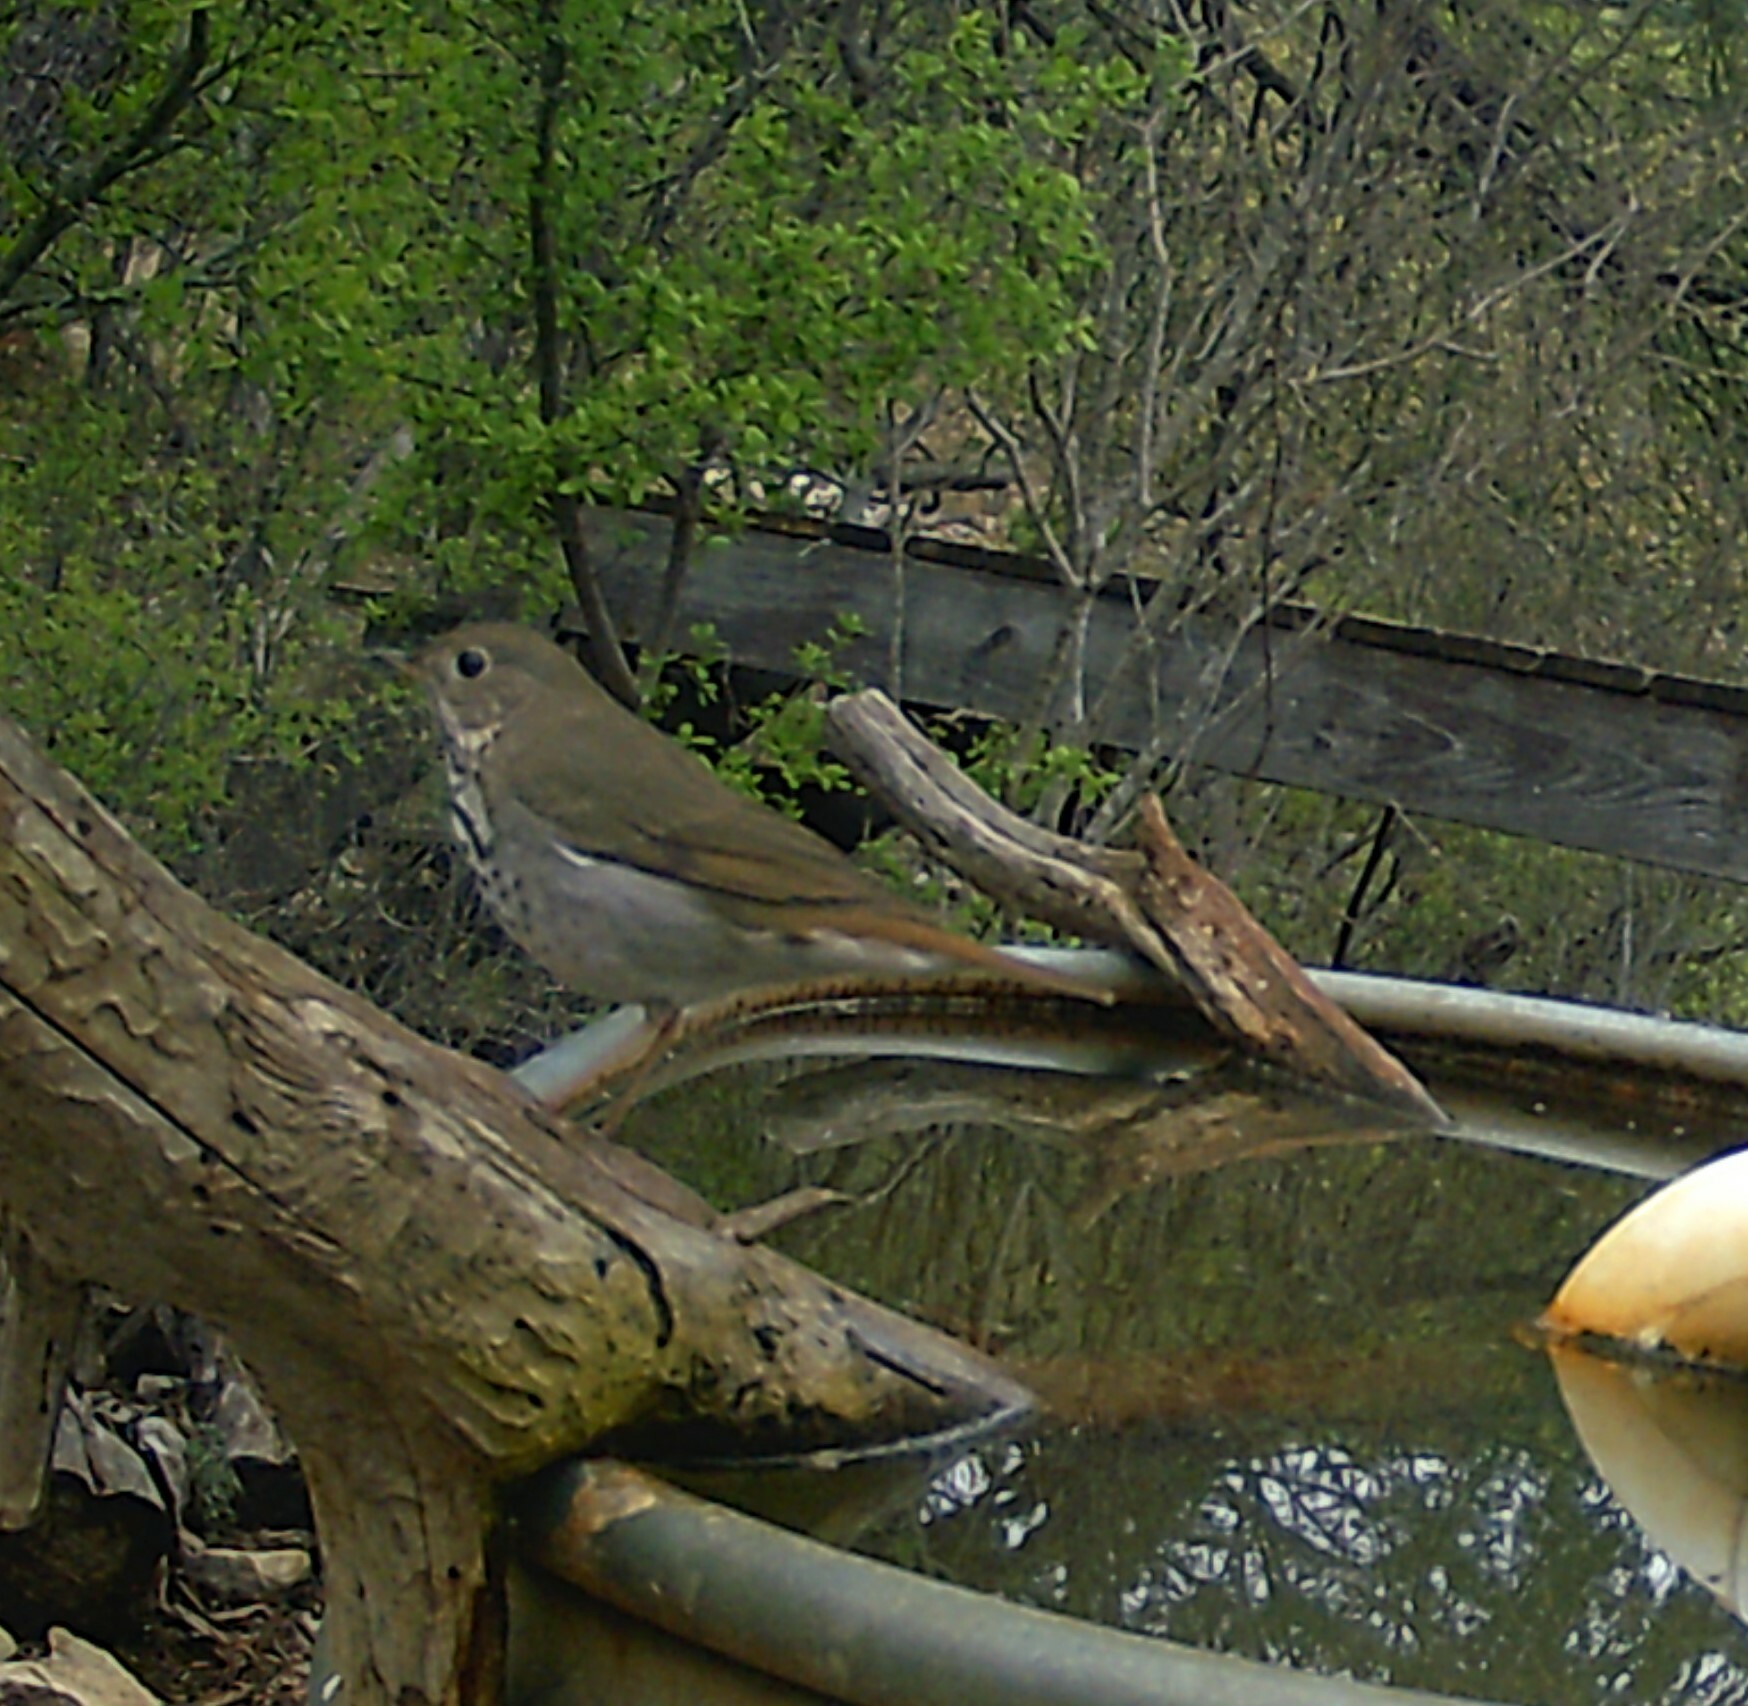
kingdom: Animalia
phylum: Chordata
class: Aves
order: Passeriformes
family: Turdidae
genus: Catharus
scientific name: Catharus guttatus
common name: Hermit thrush
